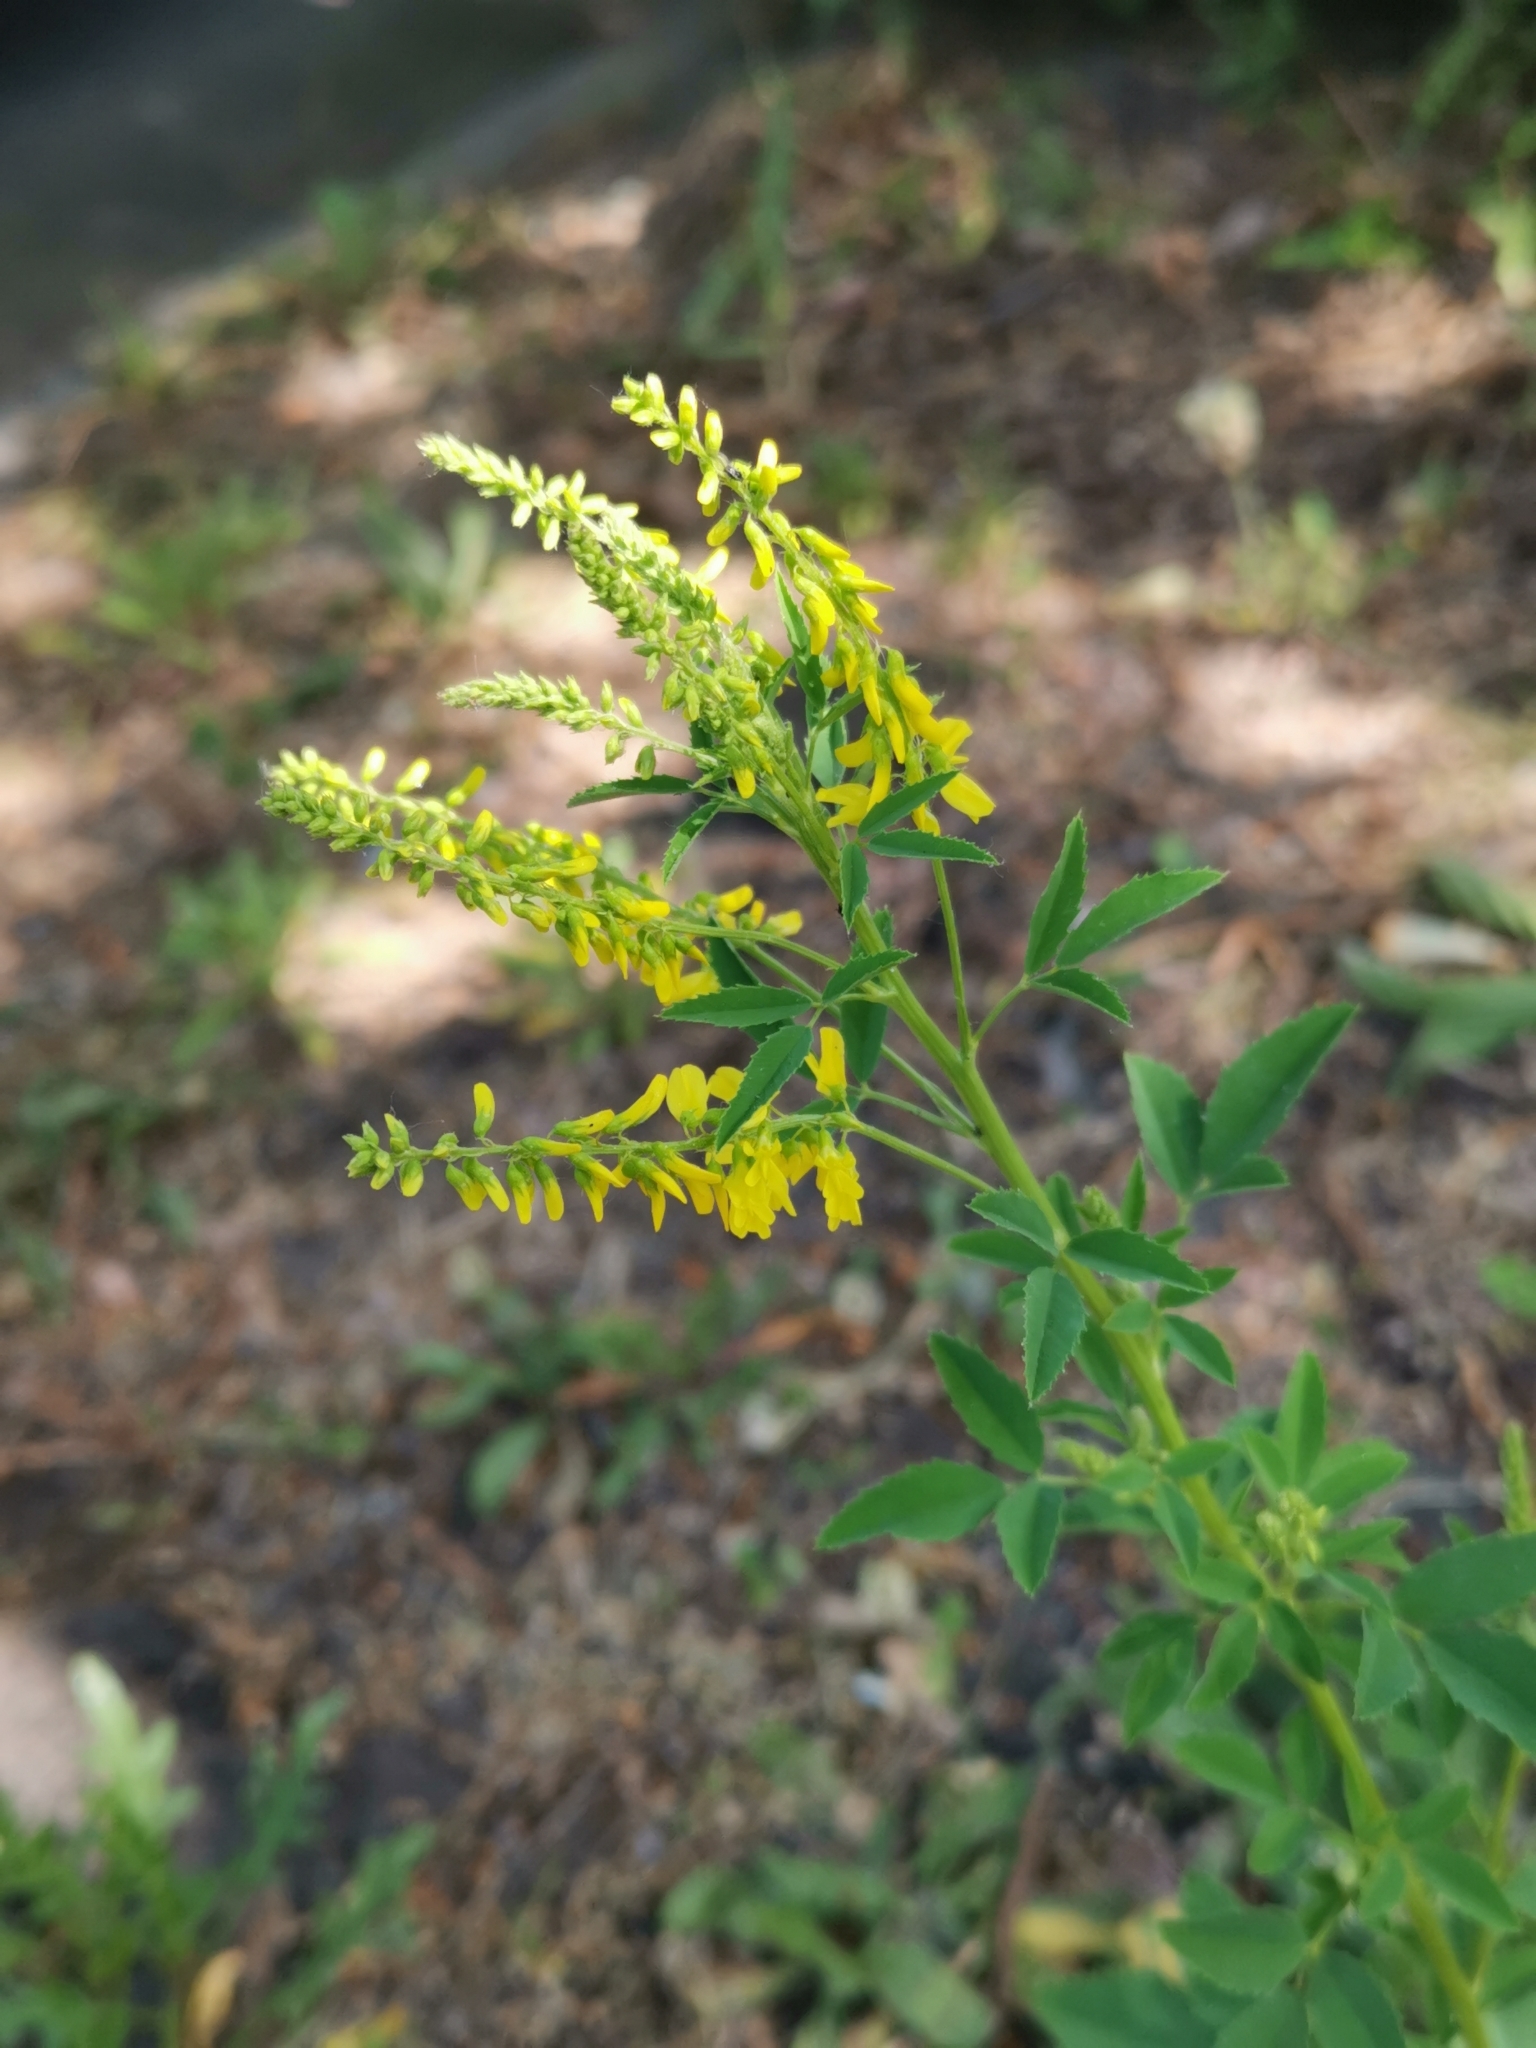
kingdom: Plantae
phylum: Tracheophyta
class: Magnoliopsida
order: Fabales
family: Fabaceae
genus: Melilotus
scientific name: Melilotus officinalis
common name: Sweetclover
